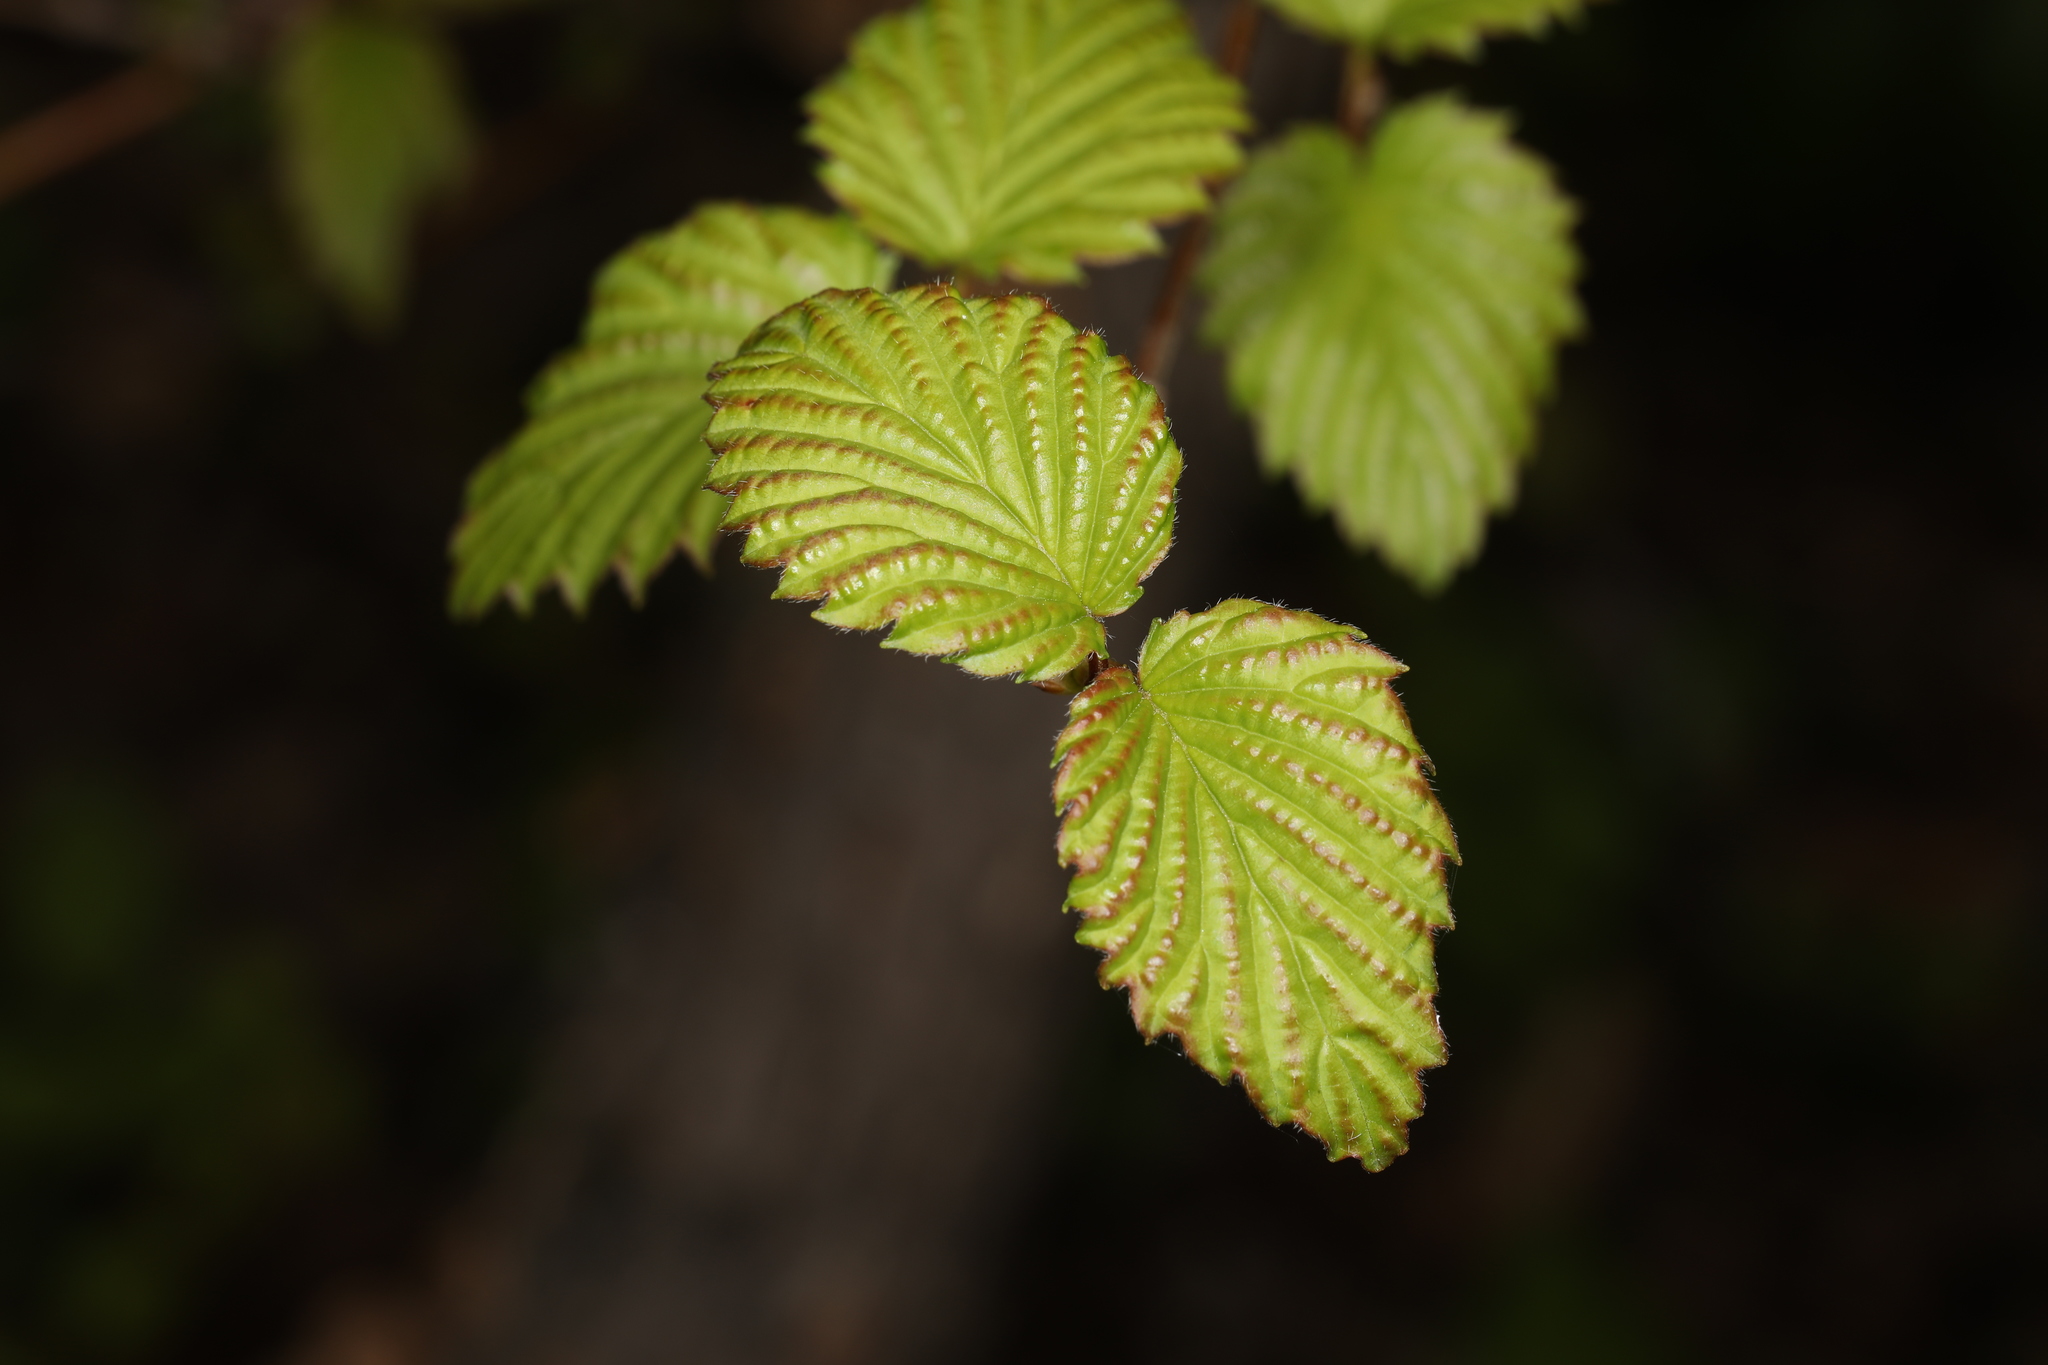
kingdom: Plantae
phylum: Tracheophyta
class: Magnoliopsida
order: Dipsacales
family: Viburnaceae
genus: Viburnum
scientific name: Viburnum dentatum
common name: Arrow-wood
